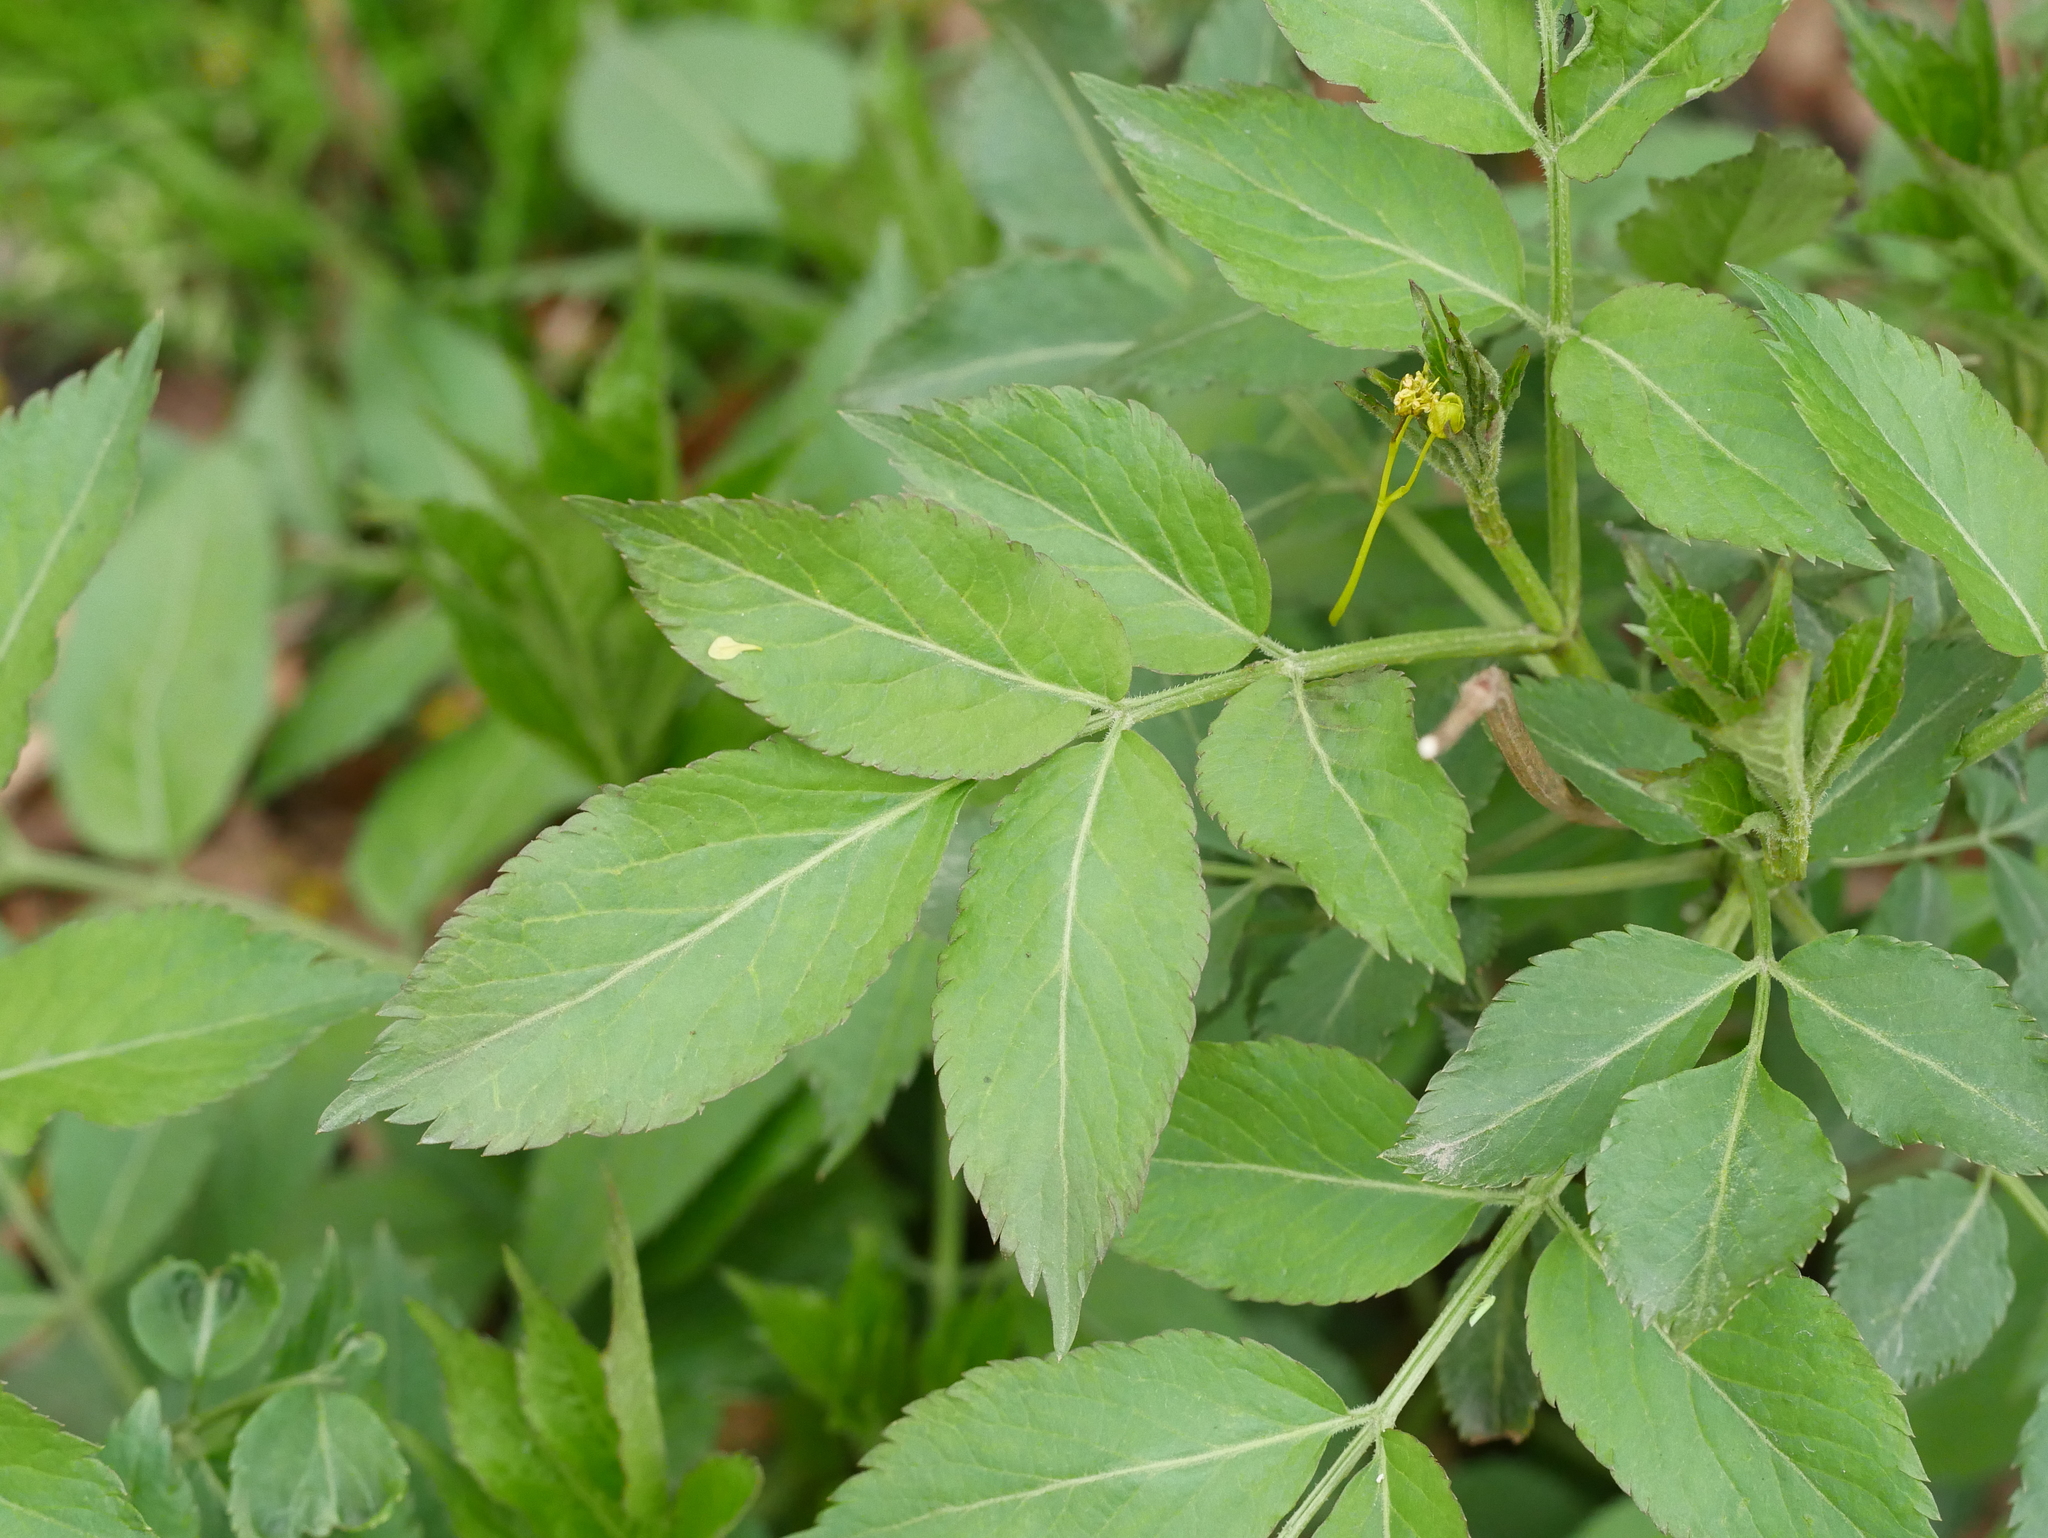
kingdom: Plantae
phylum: Tracheophyta
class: Magnoliopsida
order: Dipsacales
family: Viburnaceae
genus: Sambucus
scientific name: Sambucus nigra
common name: Elder
